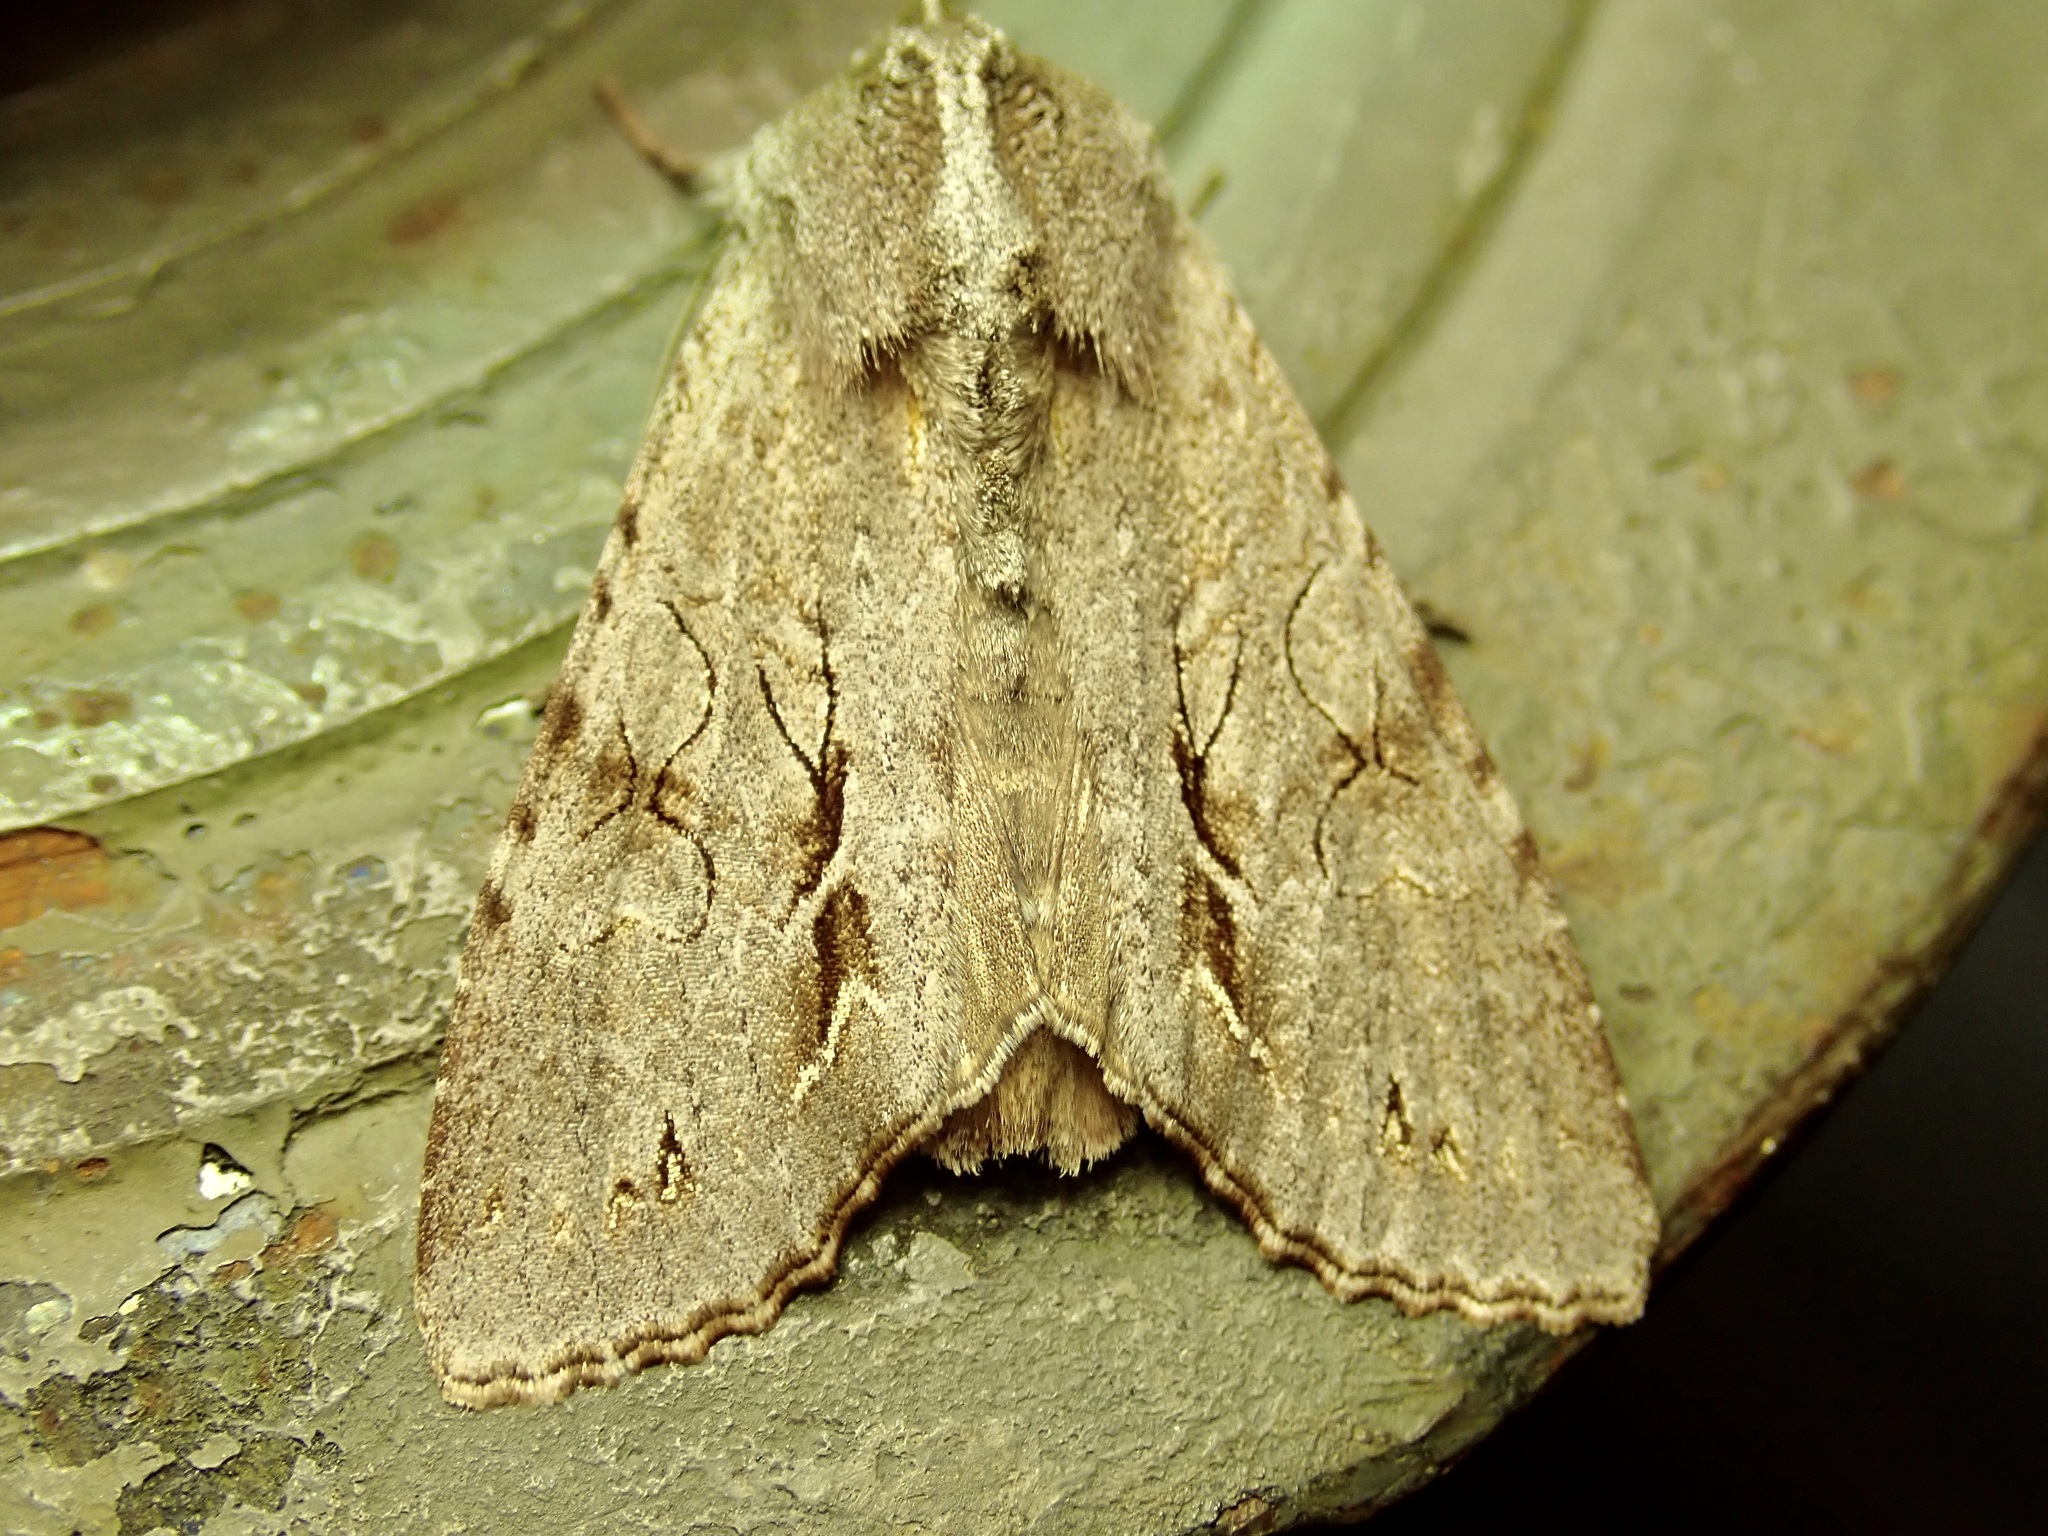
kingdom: Animalia
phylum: Arthropoda
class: Insecta
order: Lepidoptera
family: Noctuidae
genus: Ichneutica
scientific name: Ichneutica
